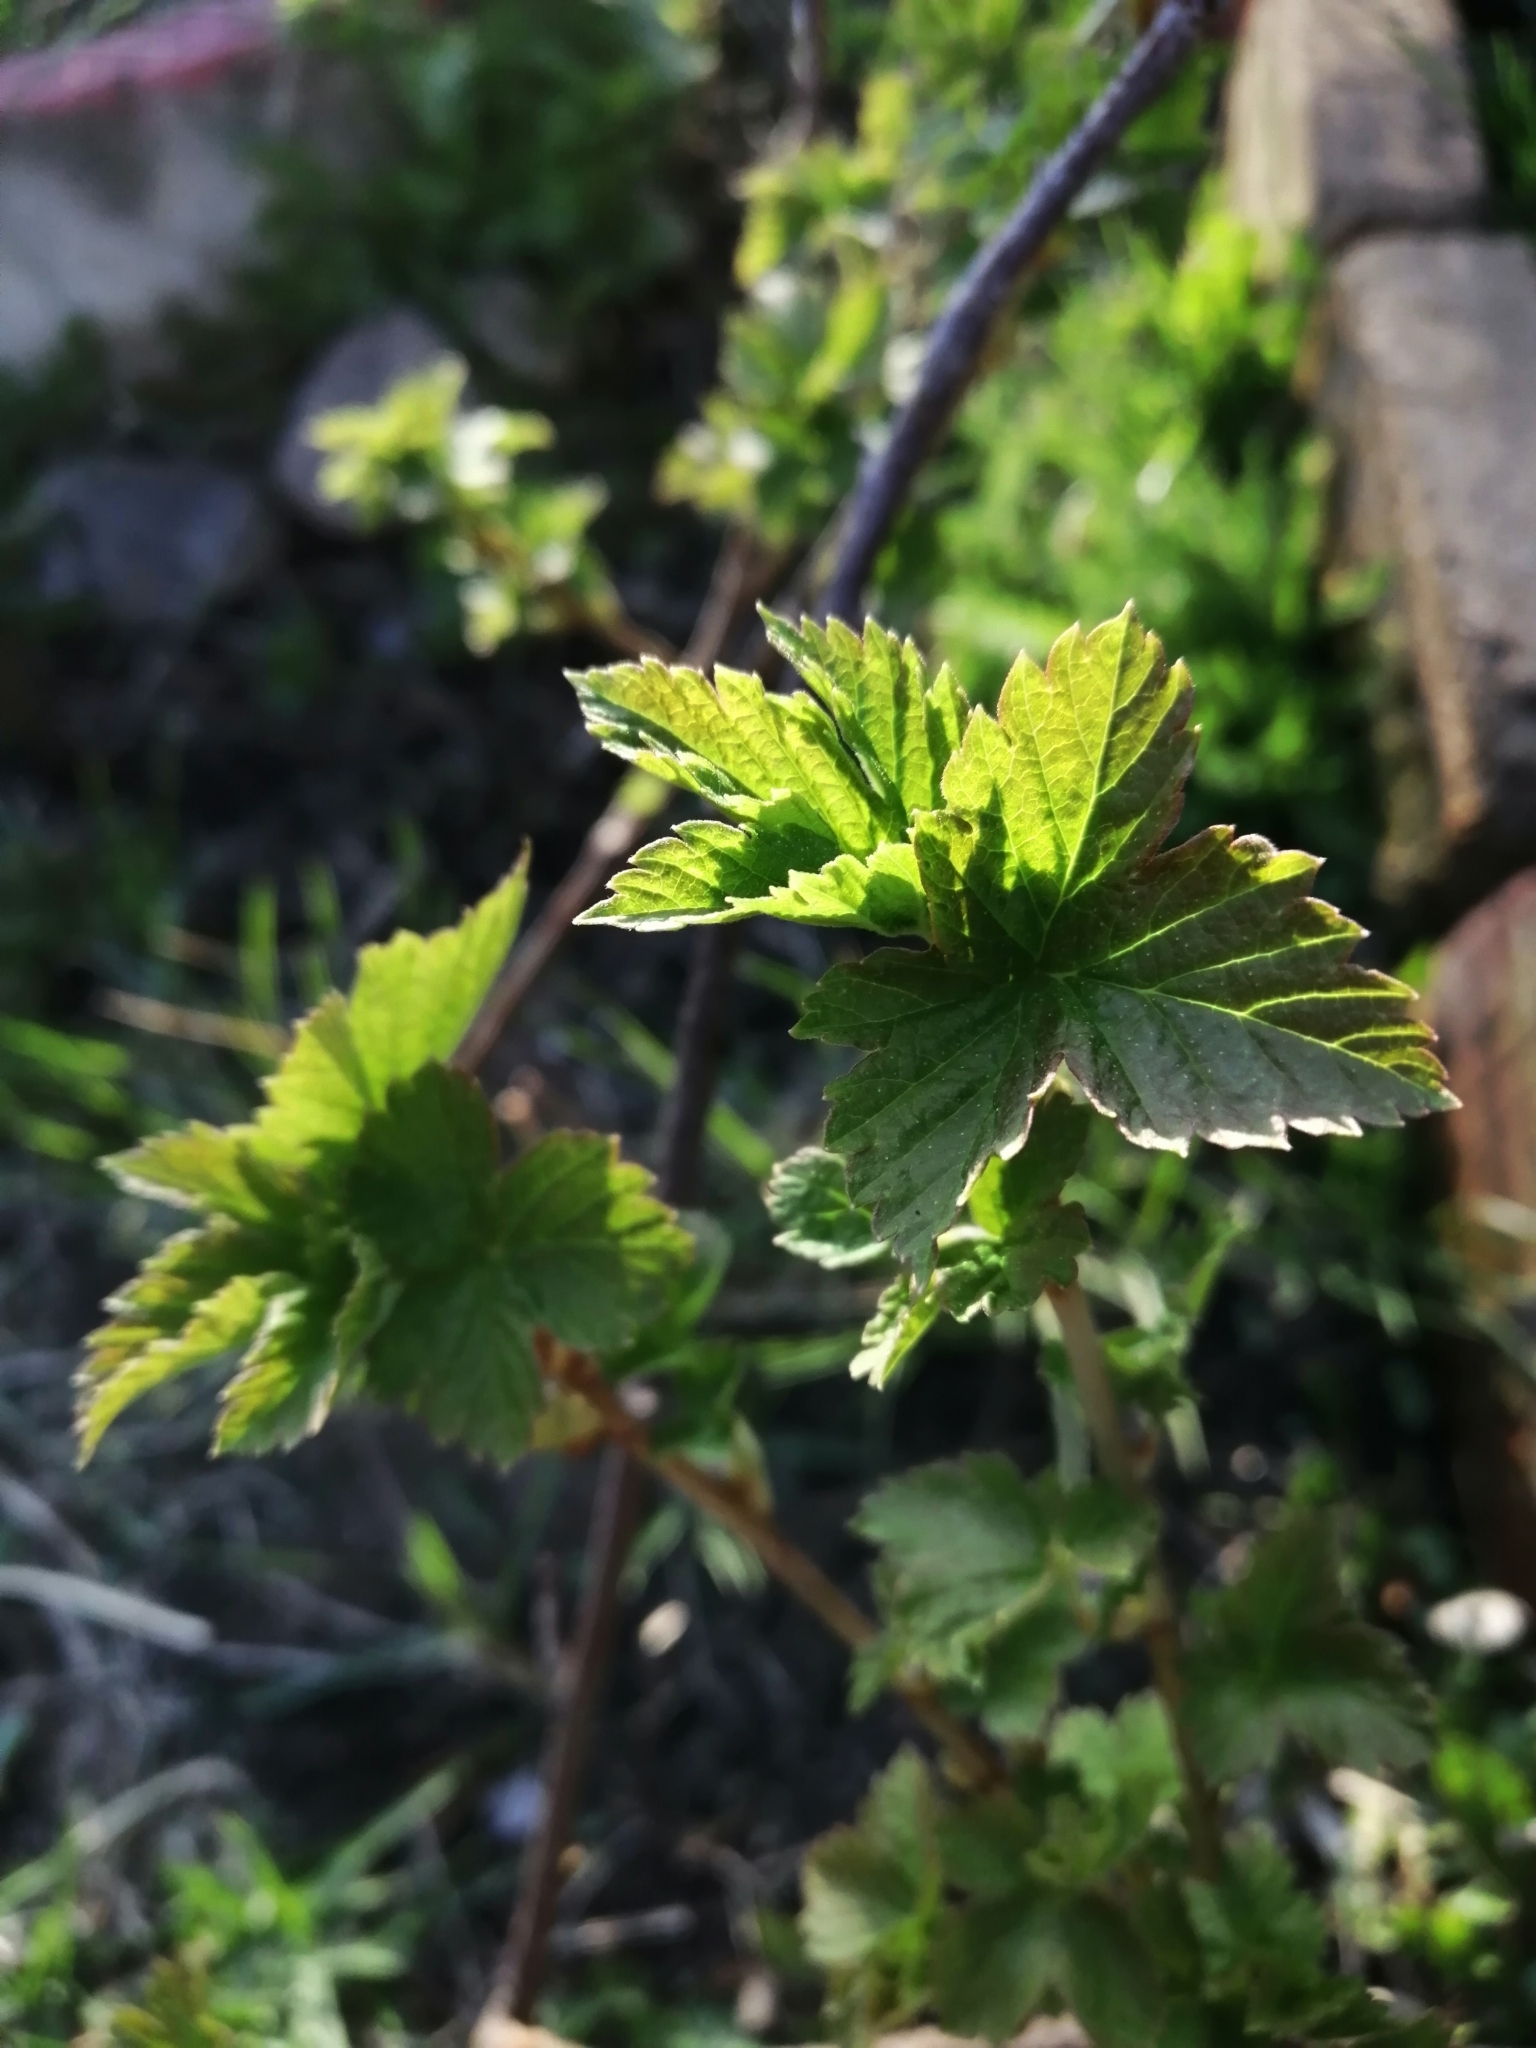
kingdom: Plantae
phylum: Tracheophyta
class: Magnoliopsida
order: Saxifragales
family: Grossulariaceae
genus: Ribes
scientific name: Ribes nigrum
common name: Black currant
